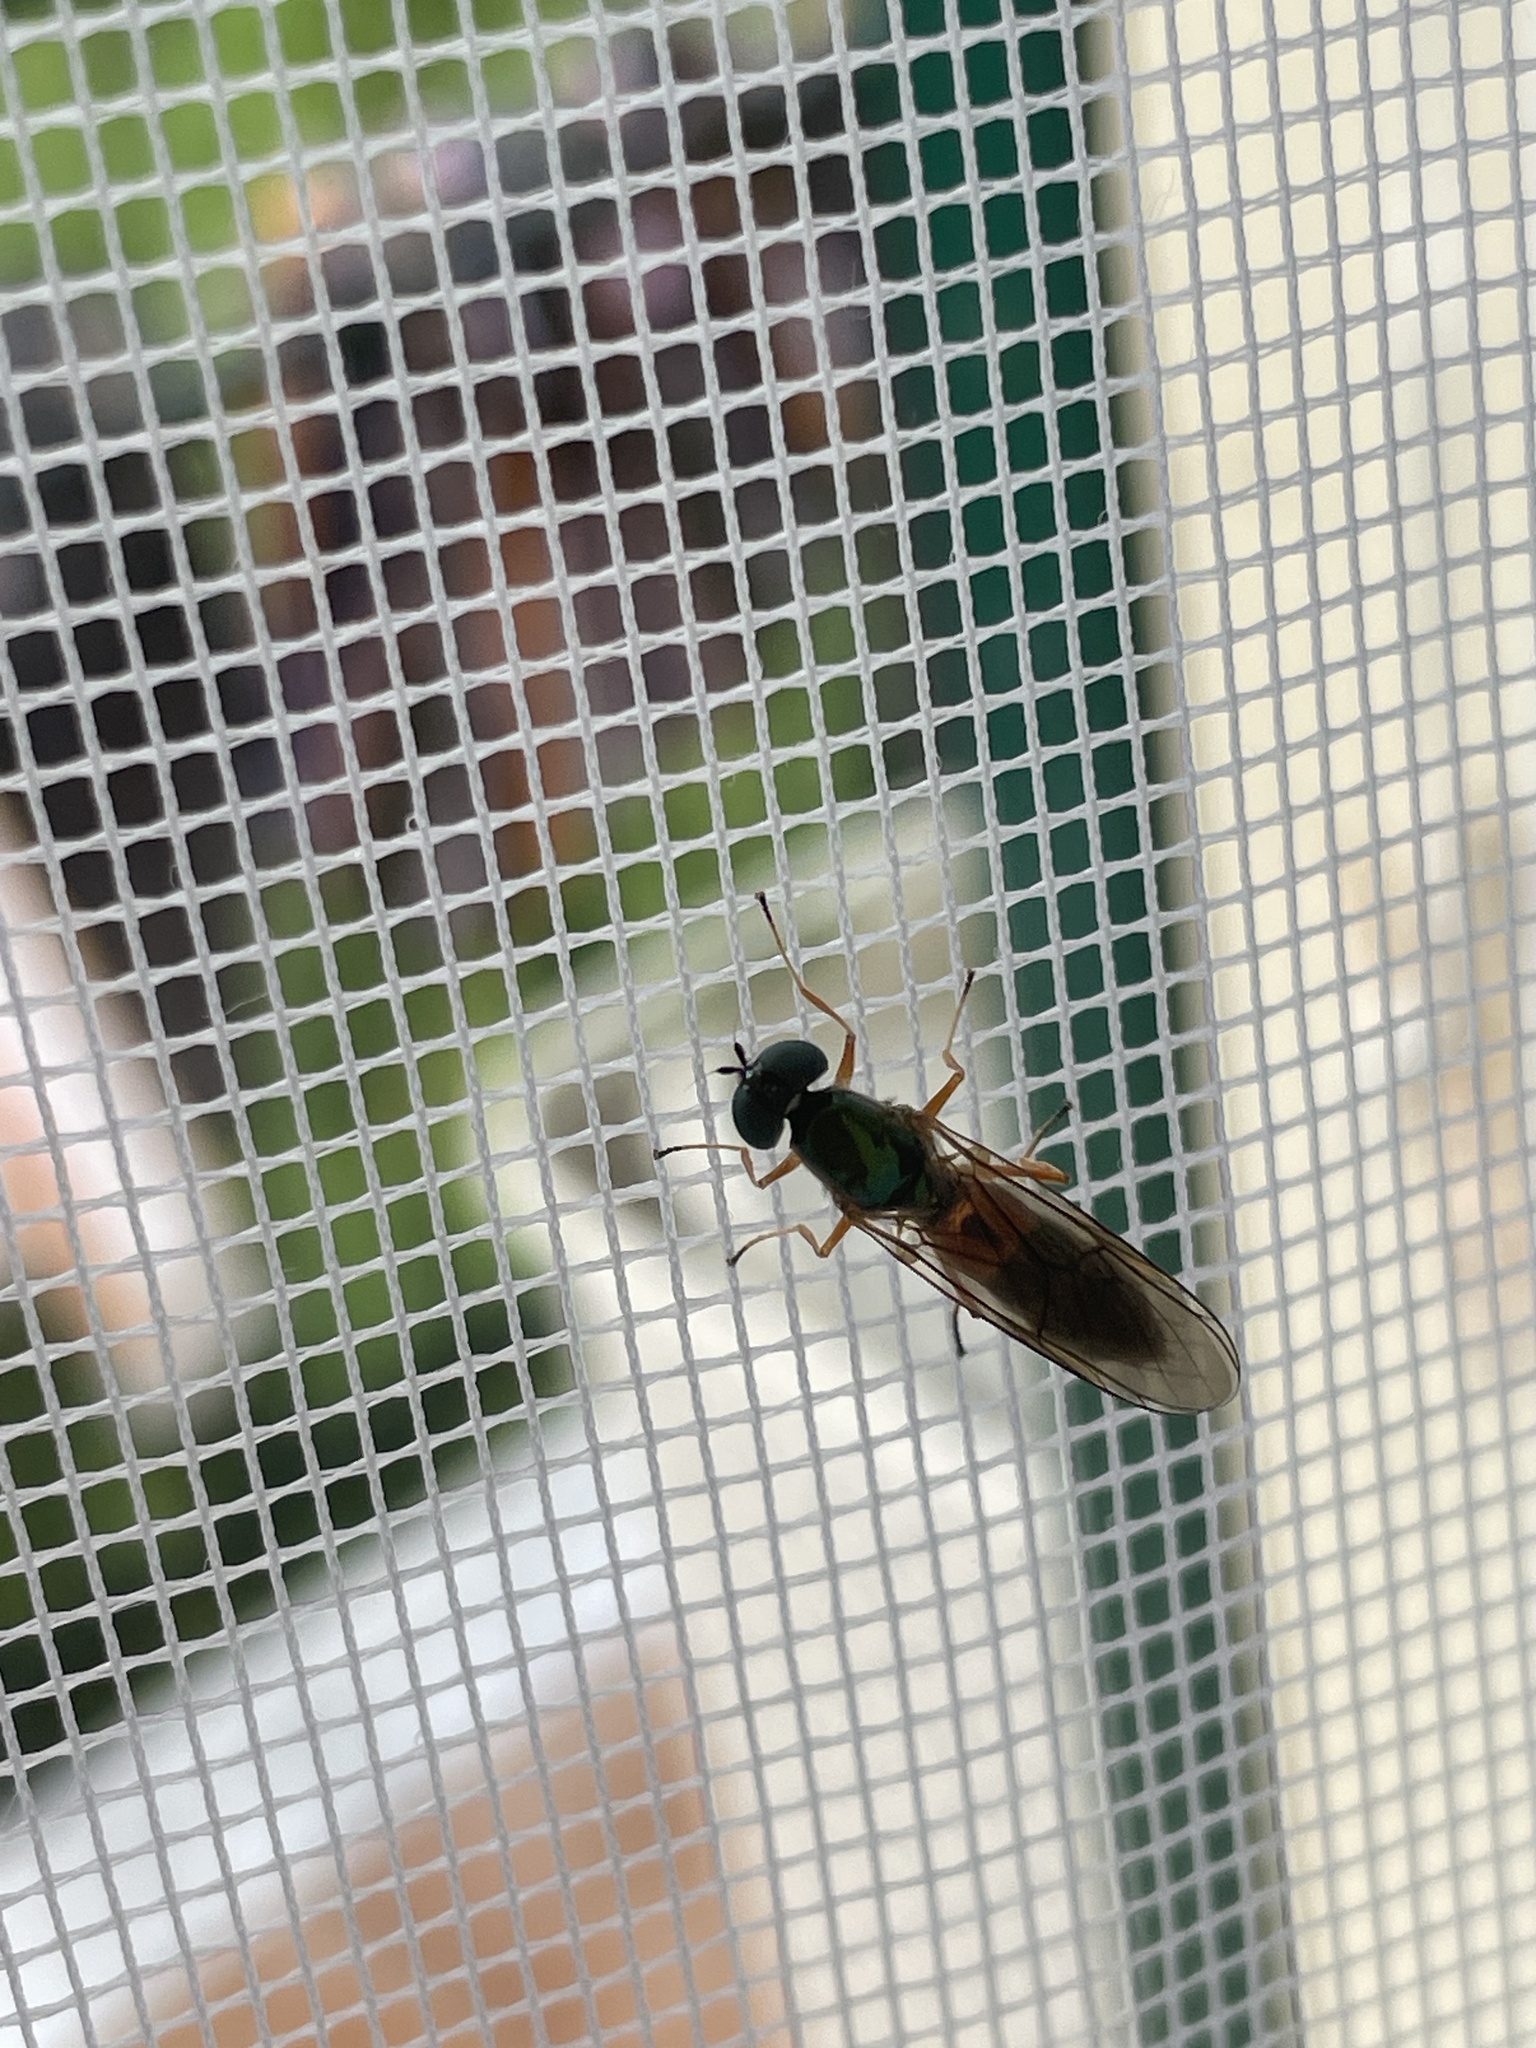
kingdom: Animalia
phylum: Arthropoda
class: Insecta
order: Diptera
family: Stratiomyidae
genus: Sargus
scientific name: Sargus bipunctatus
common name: Twin-spot centurion
